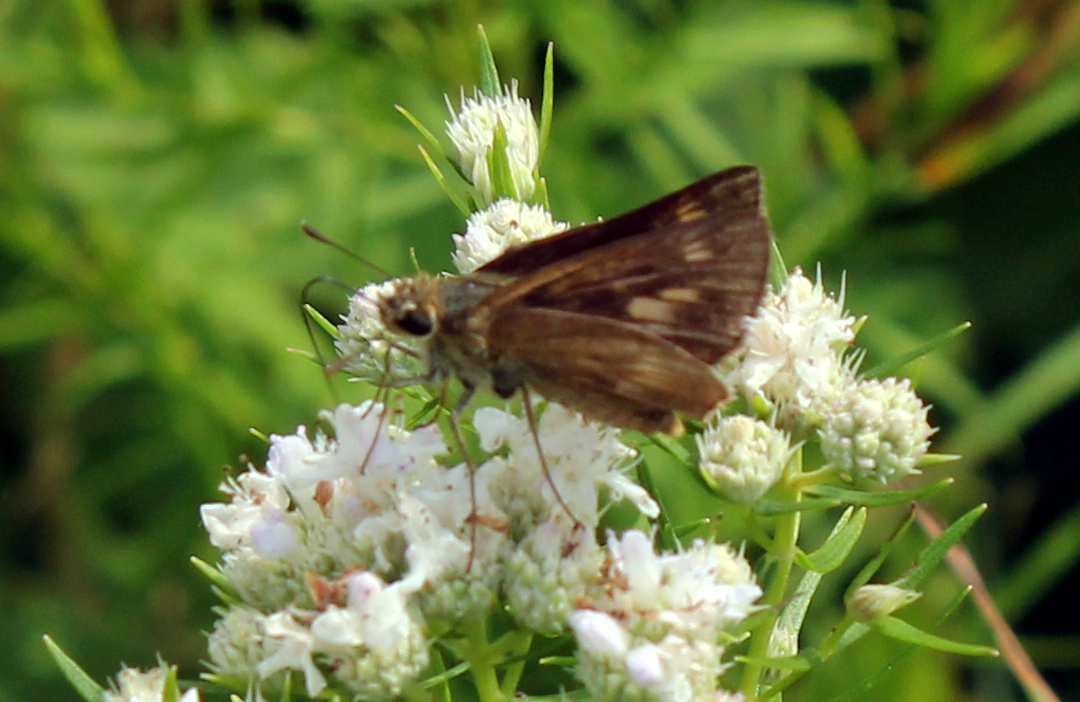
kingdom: Animalia
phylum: Arthropoda
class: Insecta
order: Lepidoptera
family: Hesperiidae
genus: Polites
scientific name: Polites egeremet
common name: Northern broken-dash
